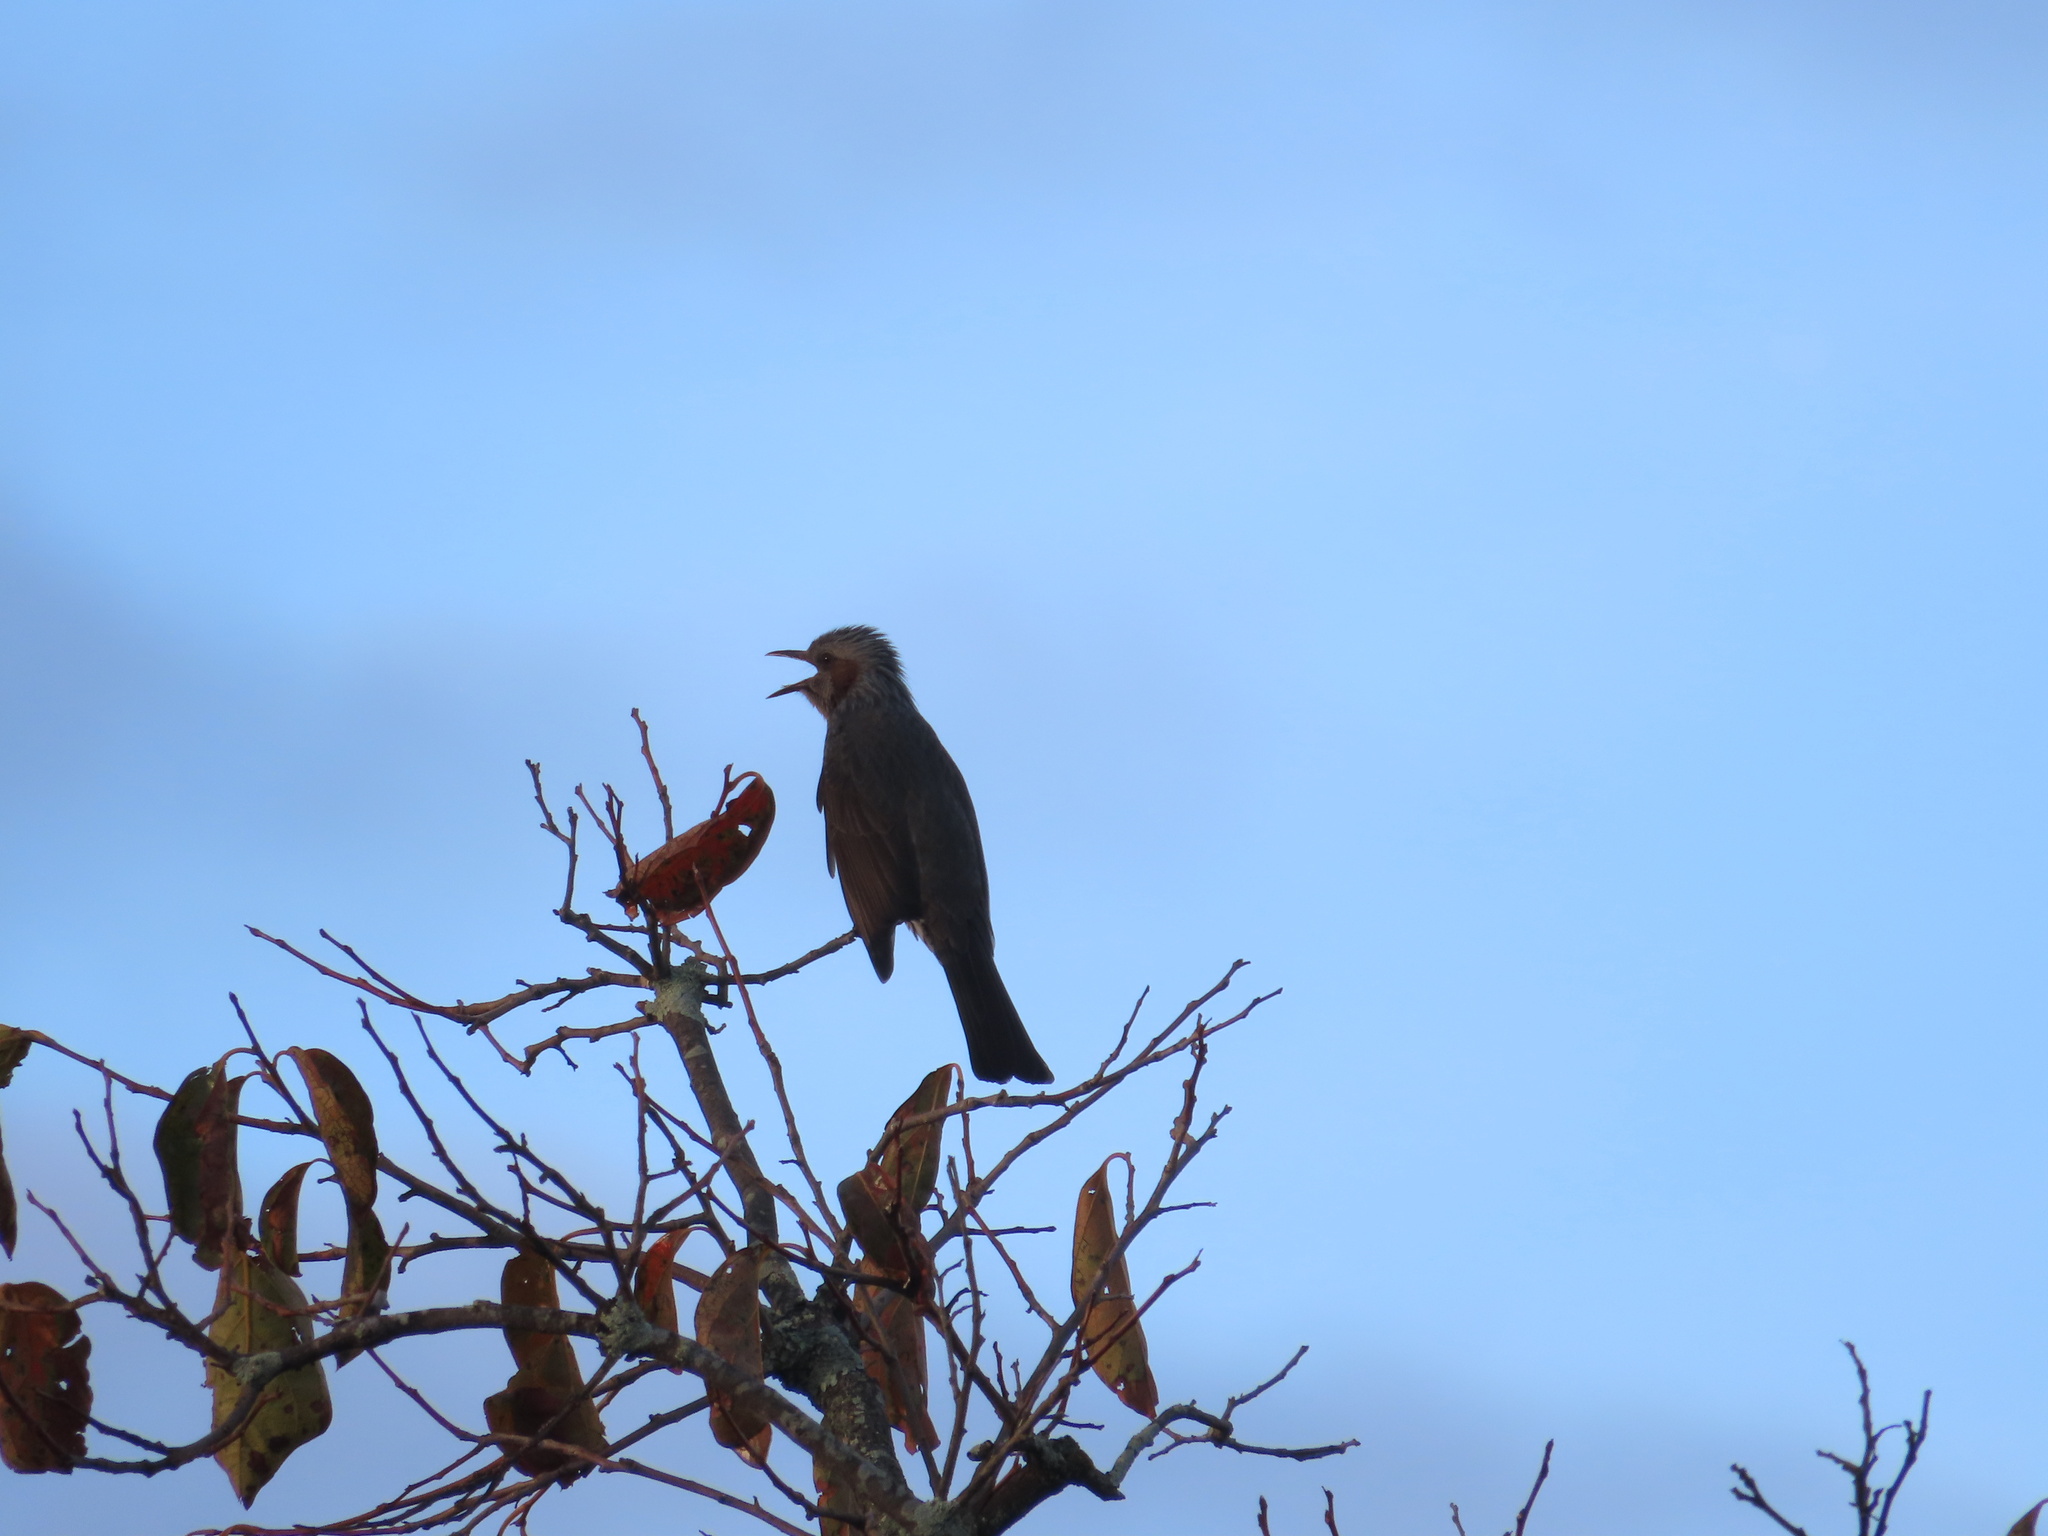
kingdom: Animalia
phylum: Chordata
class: Aves
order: Passeriformes
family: Pycnonotidae
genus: Hypsipetes
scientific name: Hypsipetes amaurotis
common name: Brown-eared bulbul
